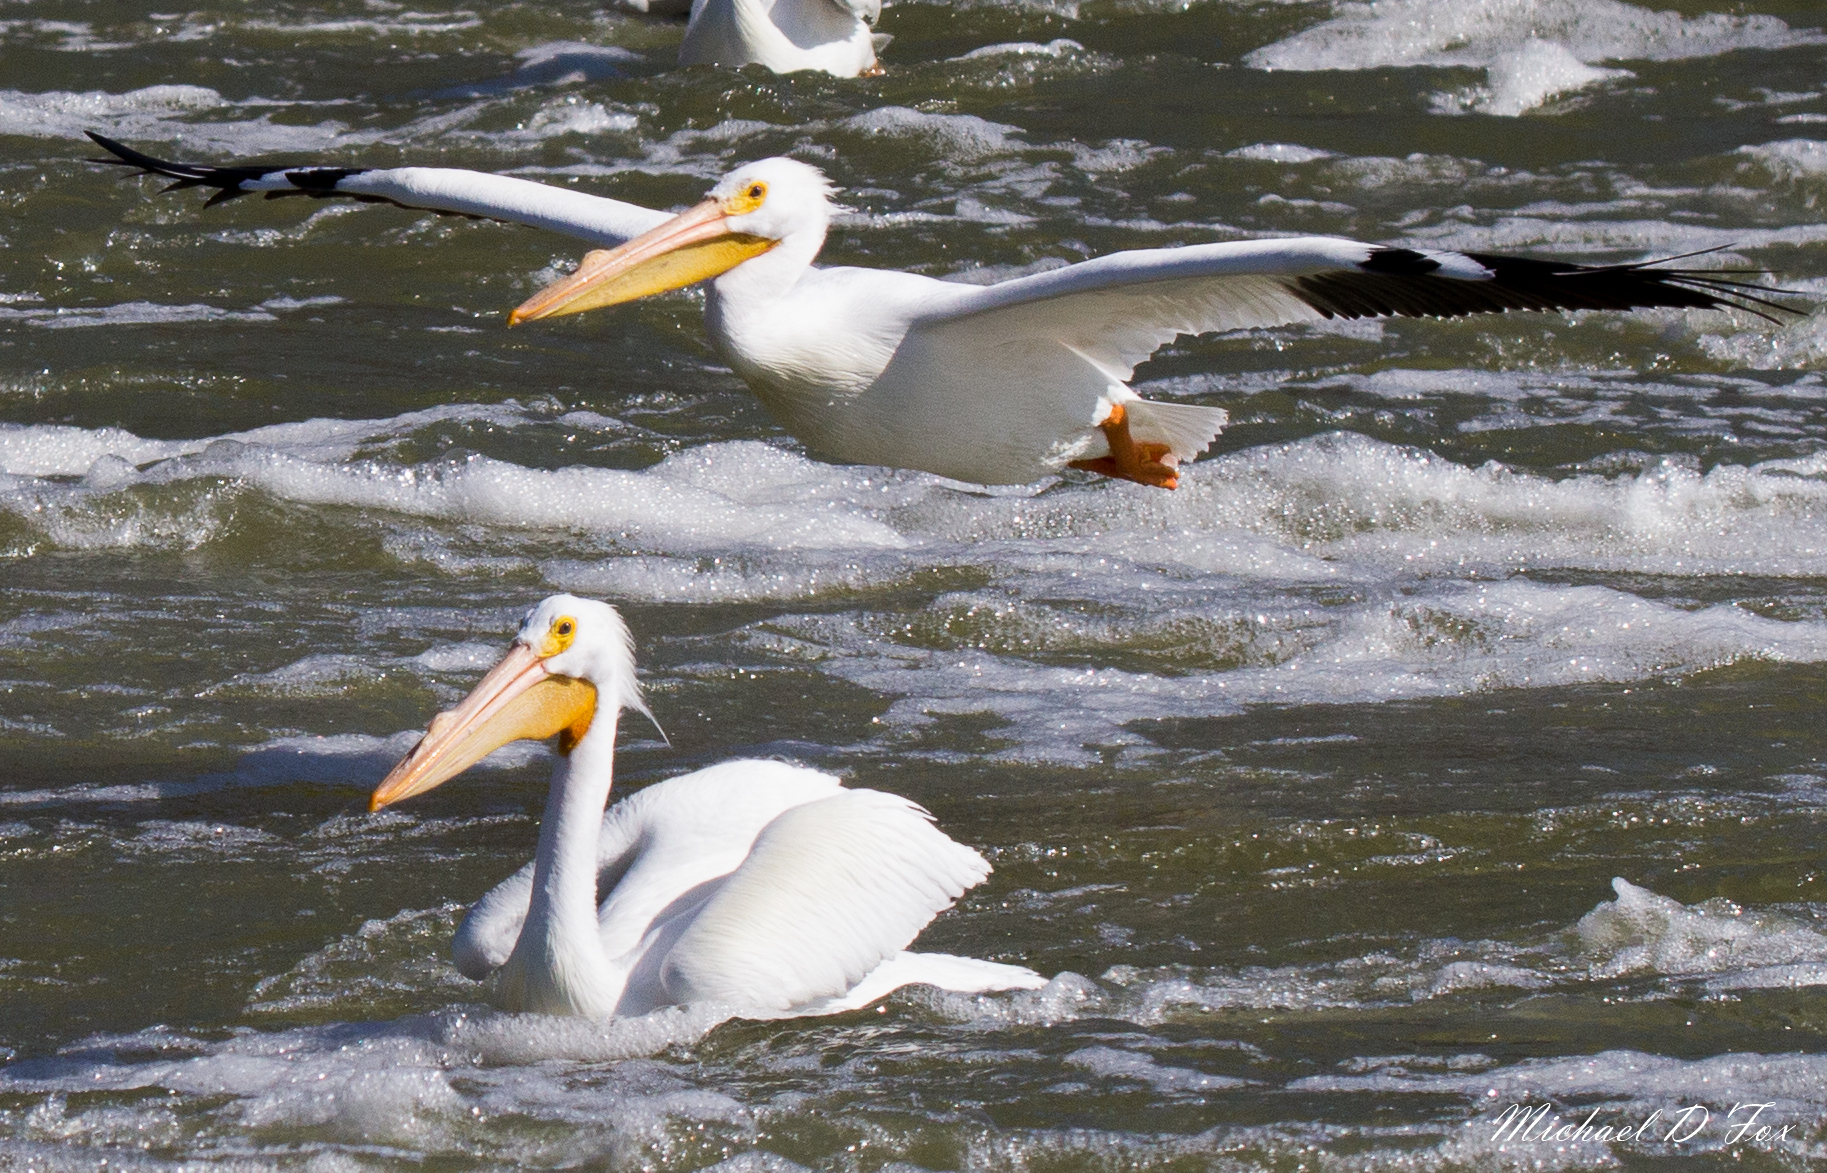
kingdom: Animalia
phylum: Chordata
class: Aves
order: Pelecaniformes
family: Pelecanidae
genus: Pelecanus
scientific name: Pelecanus erythrorhynchos
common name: American white pelican
